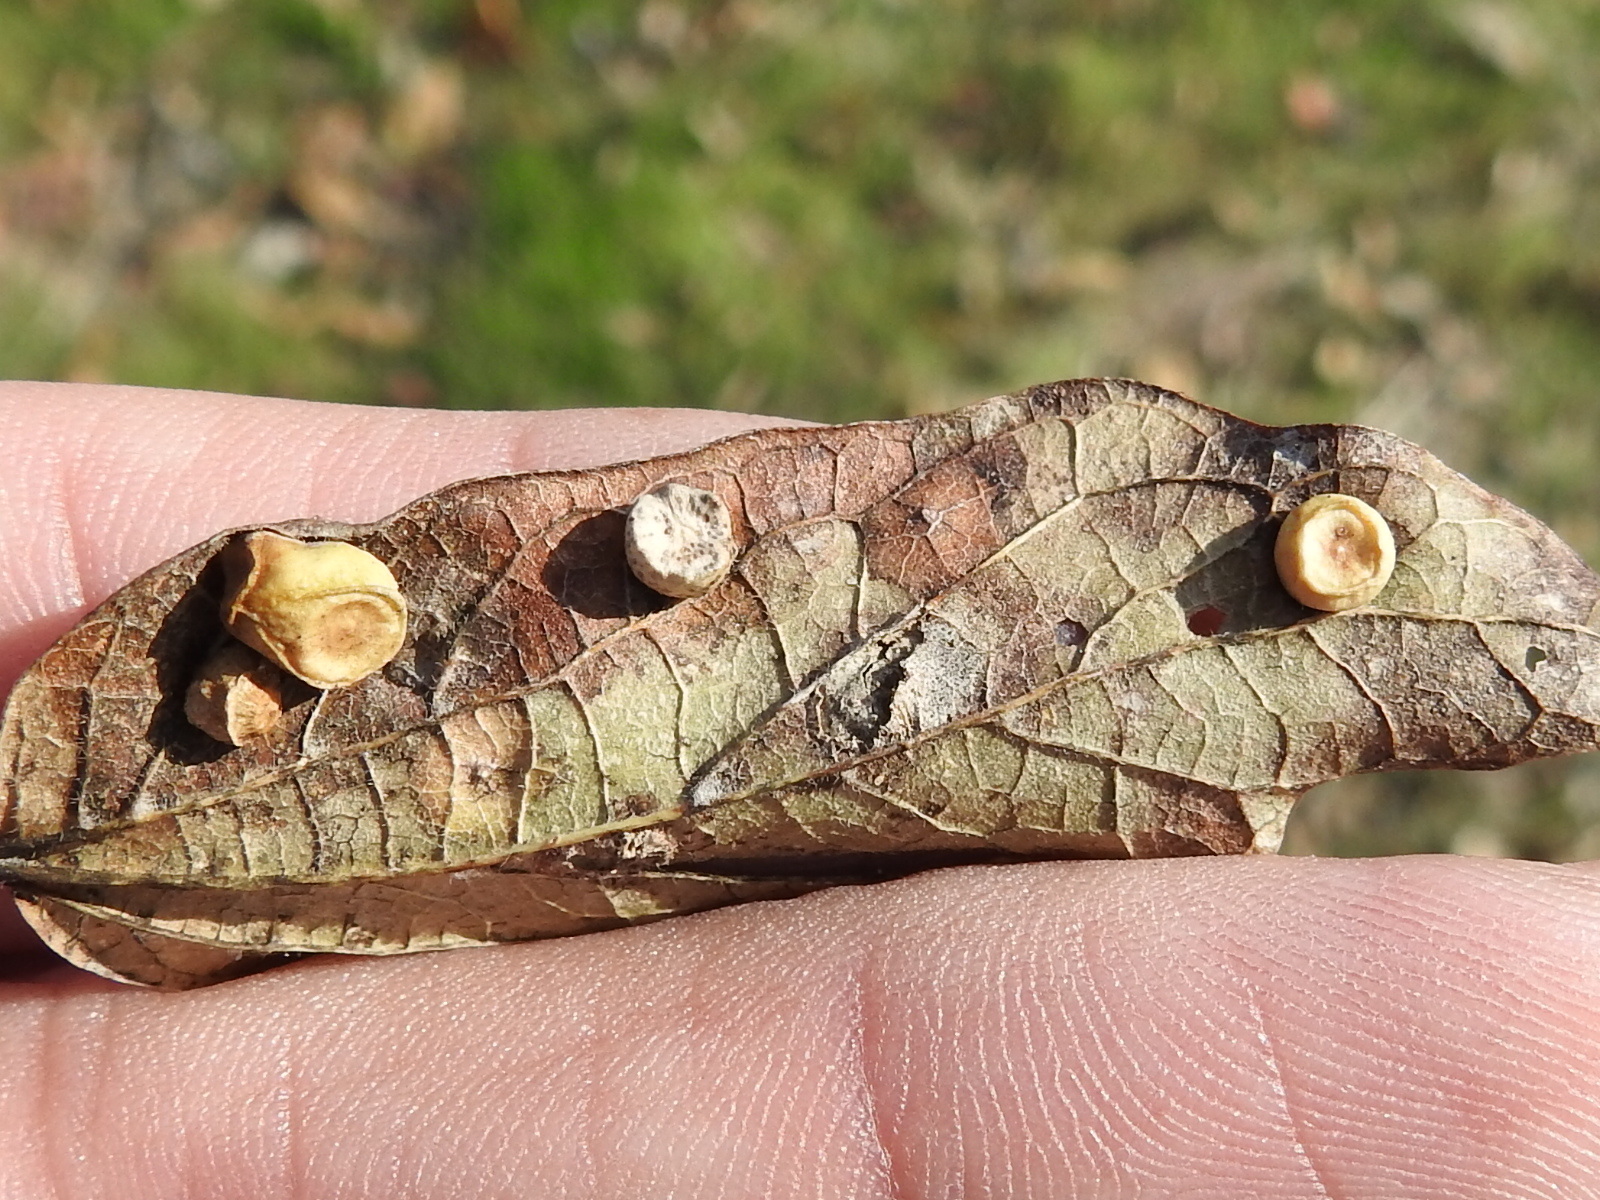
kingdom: Animalia
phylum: Arthropoda
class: Insecta
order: Hemiptera
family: Aphalaridae
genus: Pachypsylla
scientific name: Pachypsylla celtidismamma
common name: Hackberry nipplegall psyllid
